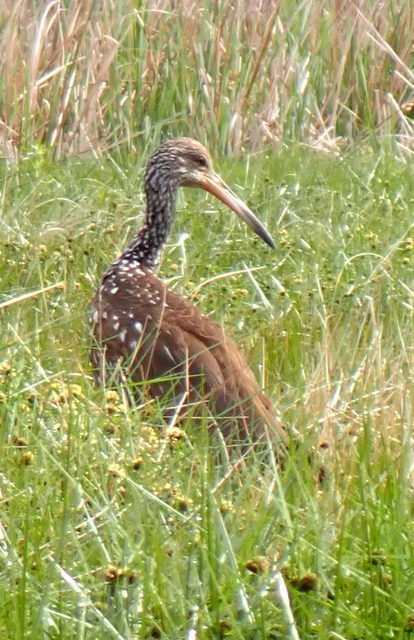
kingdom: Animalia
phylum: Chordata
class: Aves
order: Gruiformes
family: Aramidae
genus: Aramus
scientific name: Aramus guarauna
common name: Limpkin
